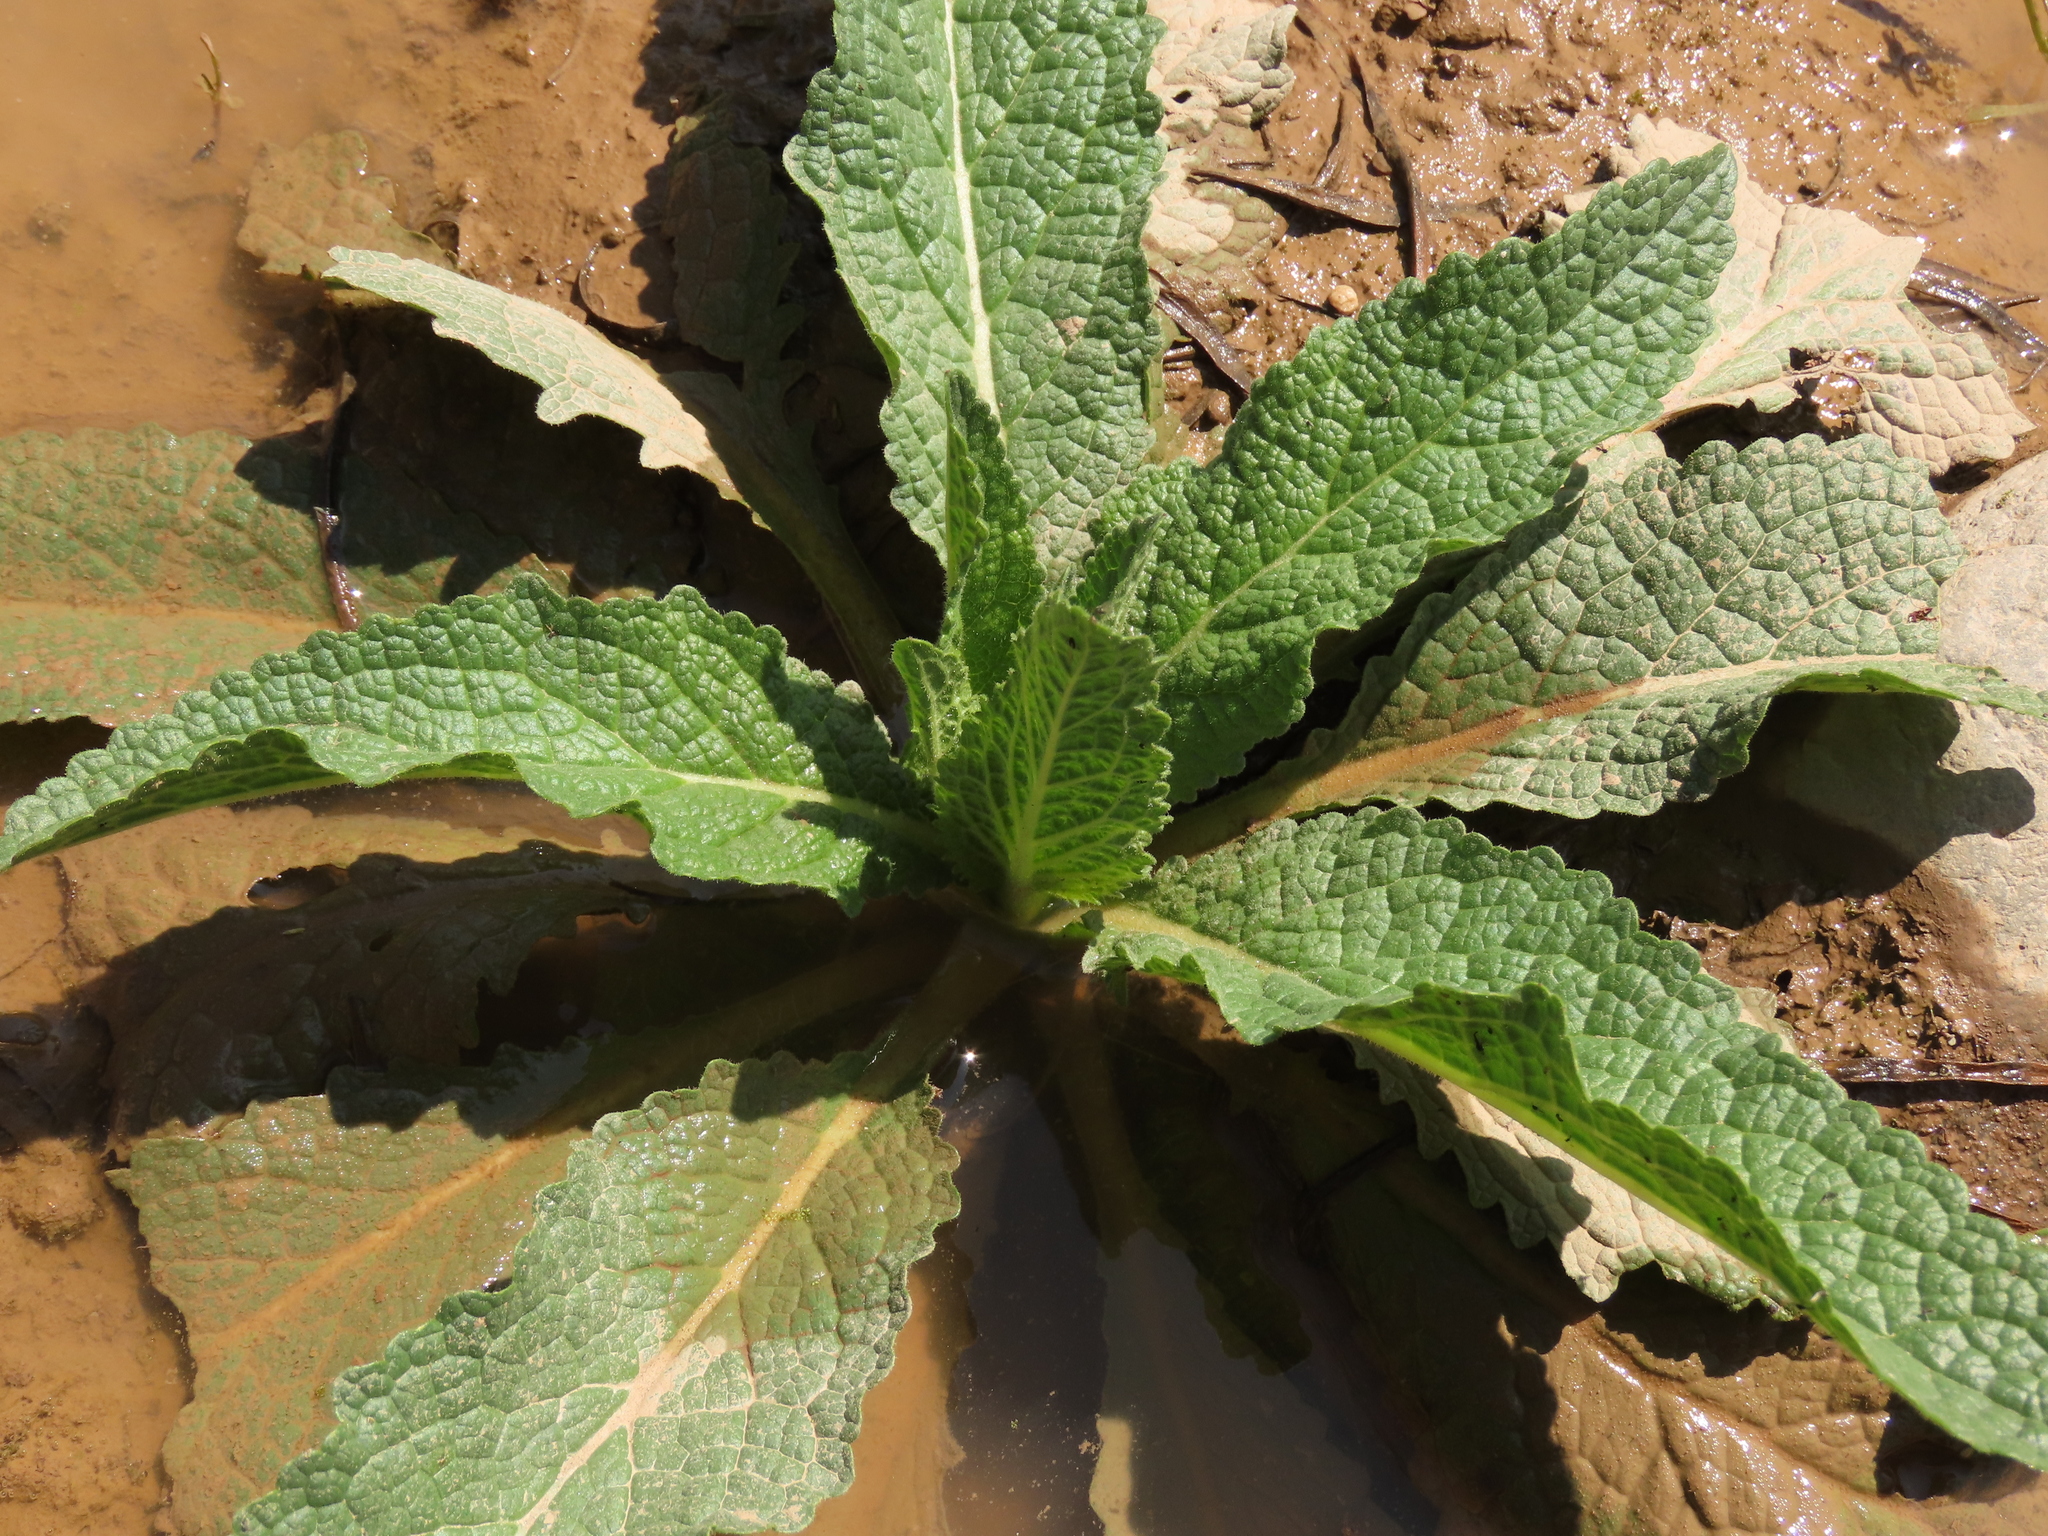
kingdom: Plantae
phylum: Tracheophyta
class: Magnoliopsida
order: Lamiales
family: Scrophulariaceae
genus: Verbascum
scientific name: Verbascum virgatum
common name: Twiggy mullein
